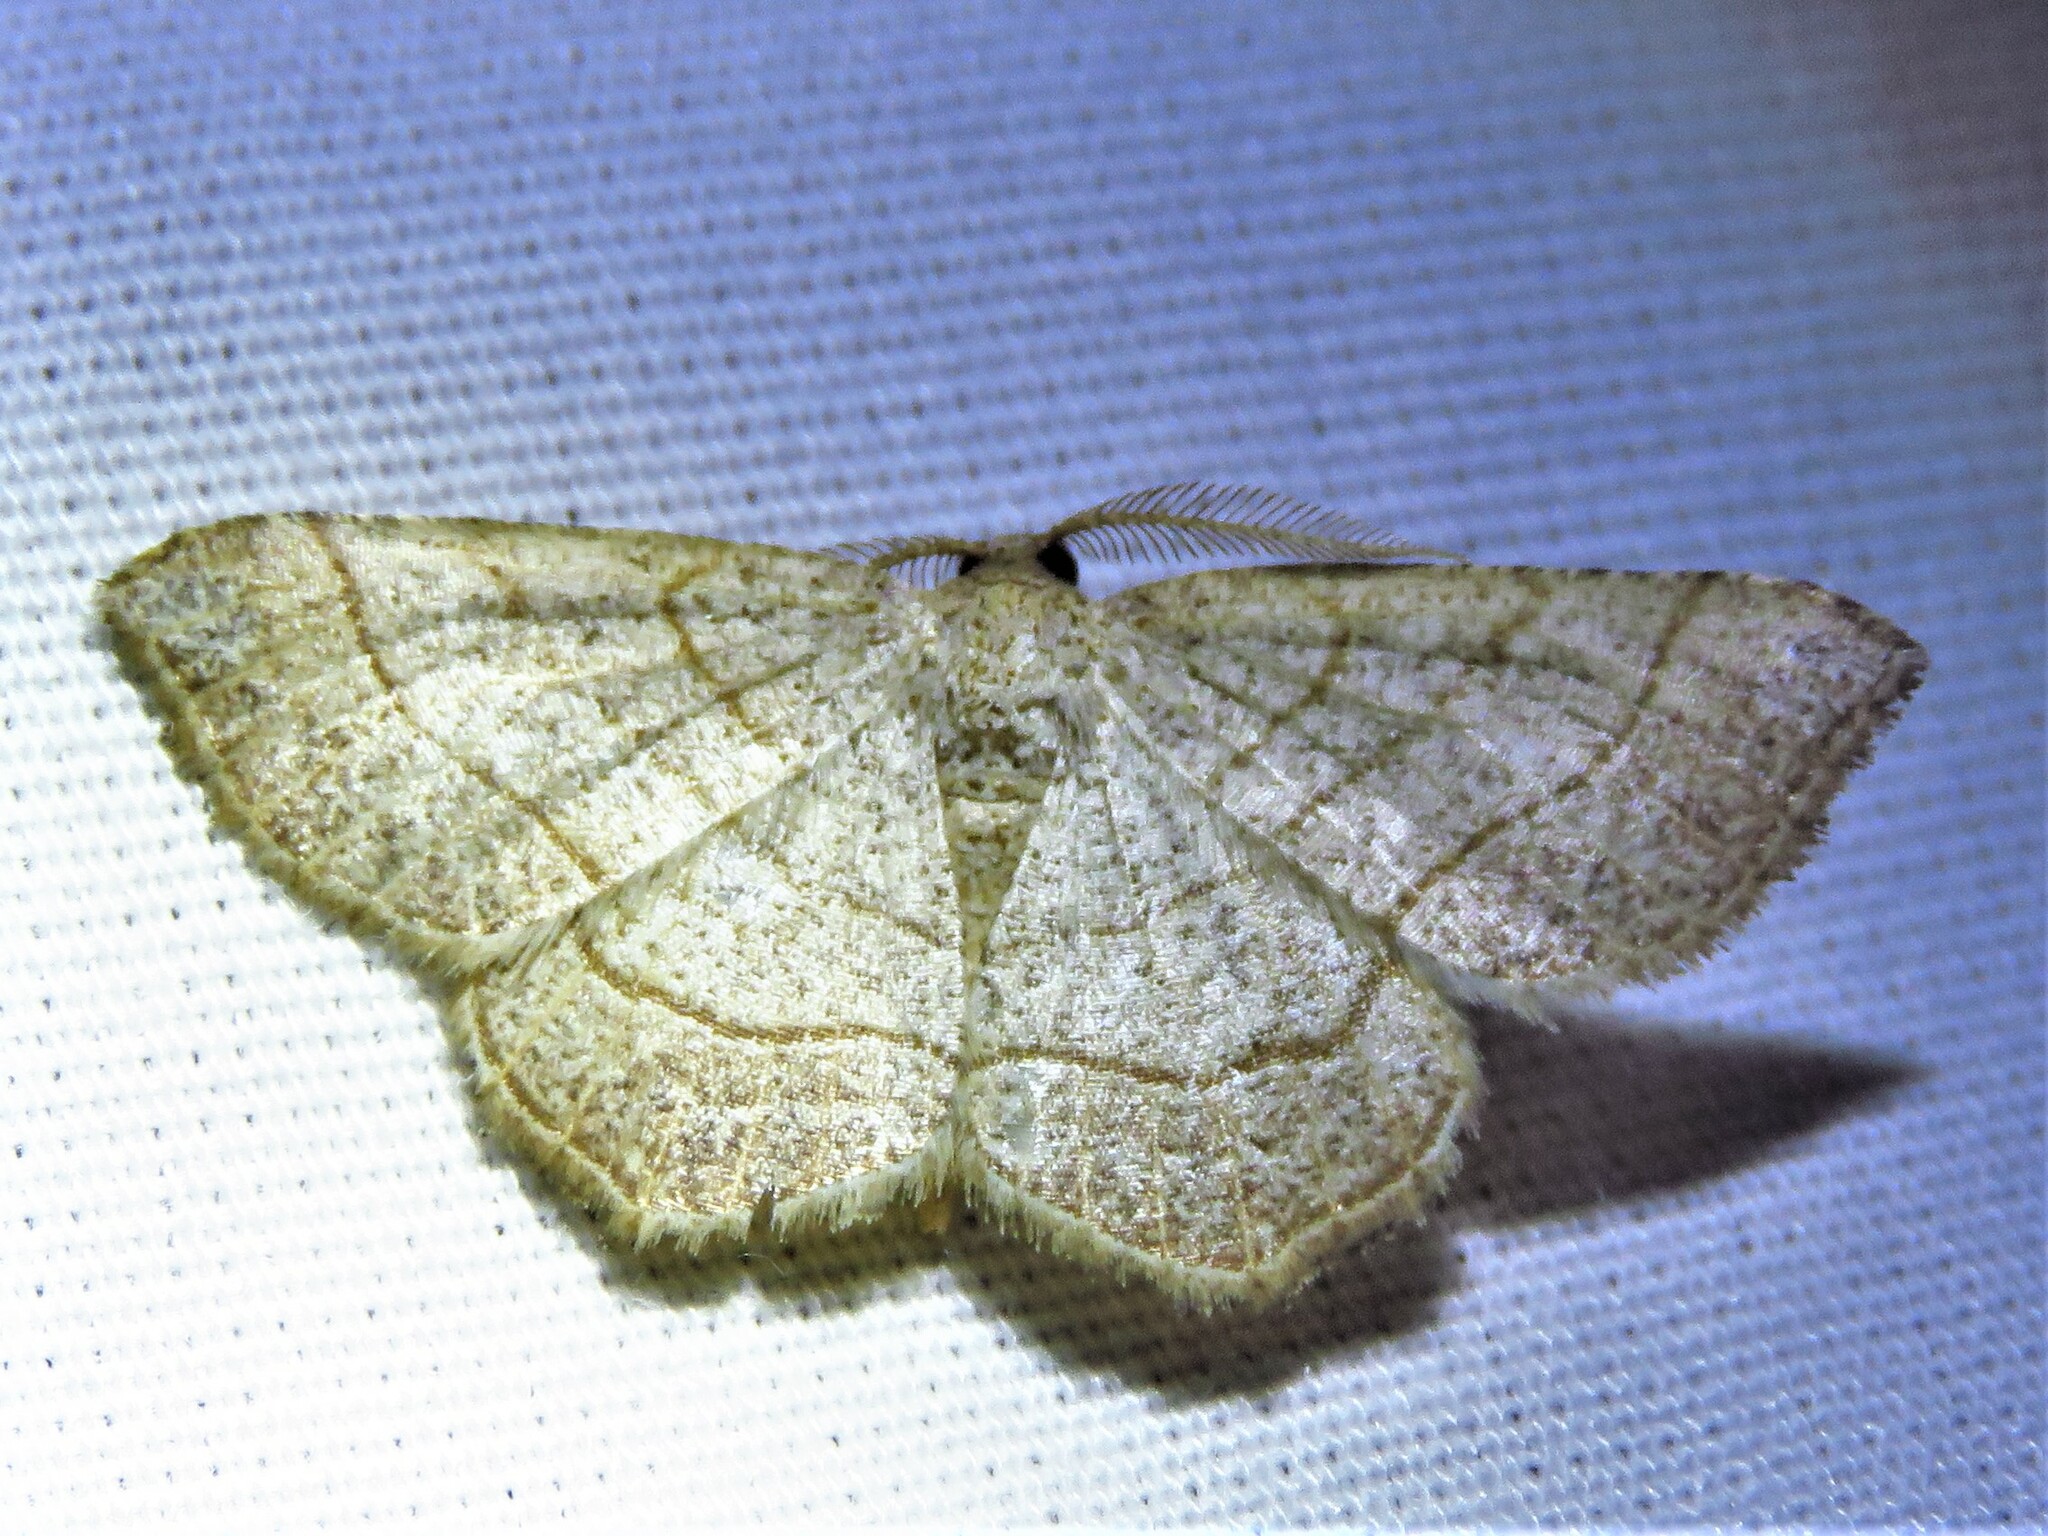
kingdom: Animalia
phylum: Arthropoda
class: Insecta
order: Lepidoptera
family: Geometridae
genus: Eumacaria
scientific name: Eumacaria madopata
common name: Brown-bordered geometer
